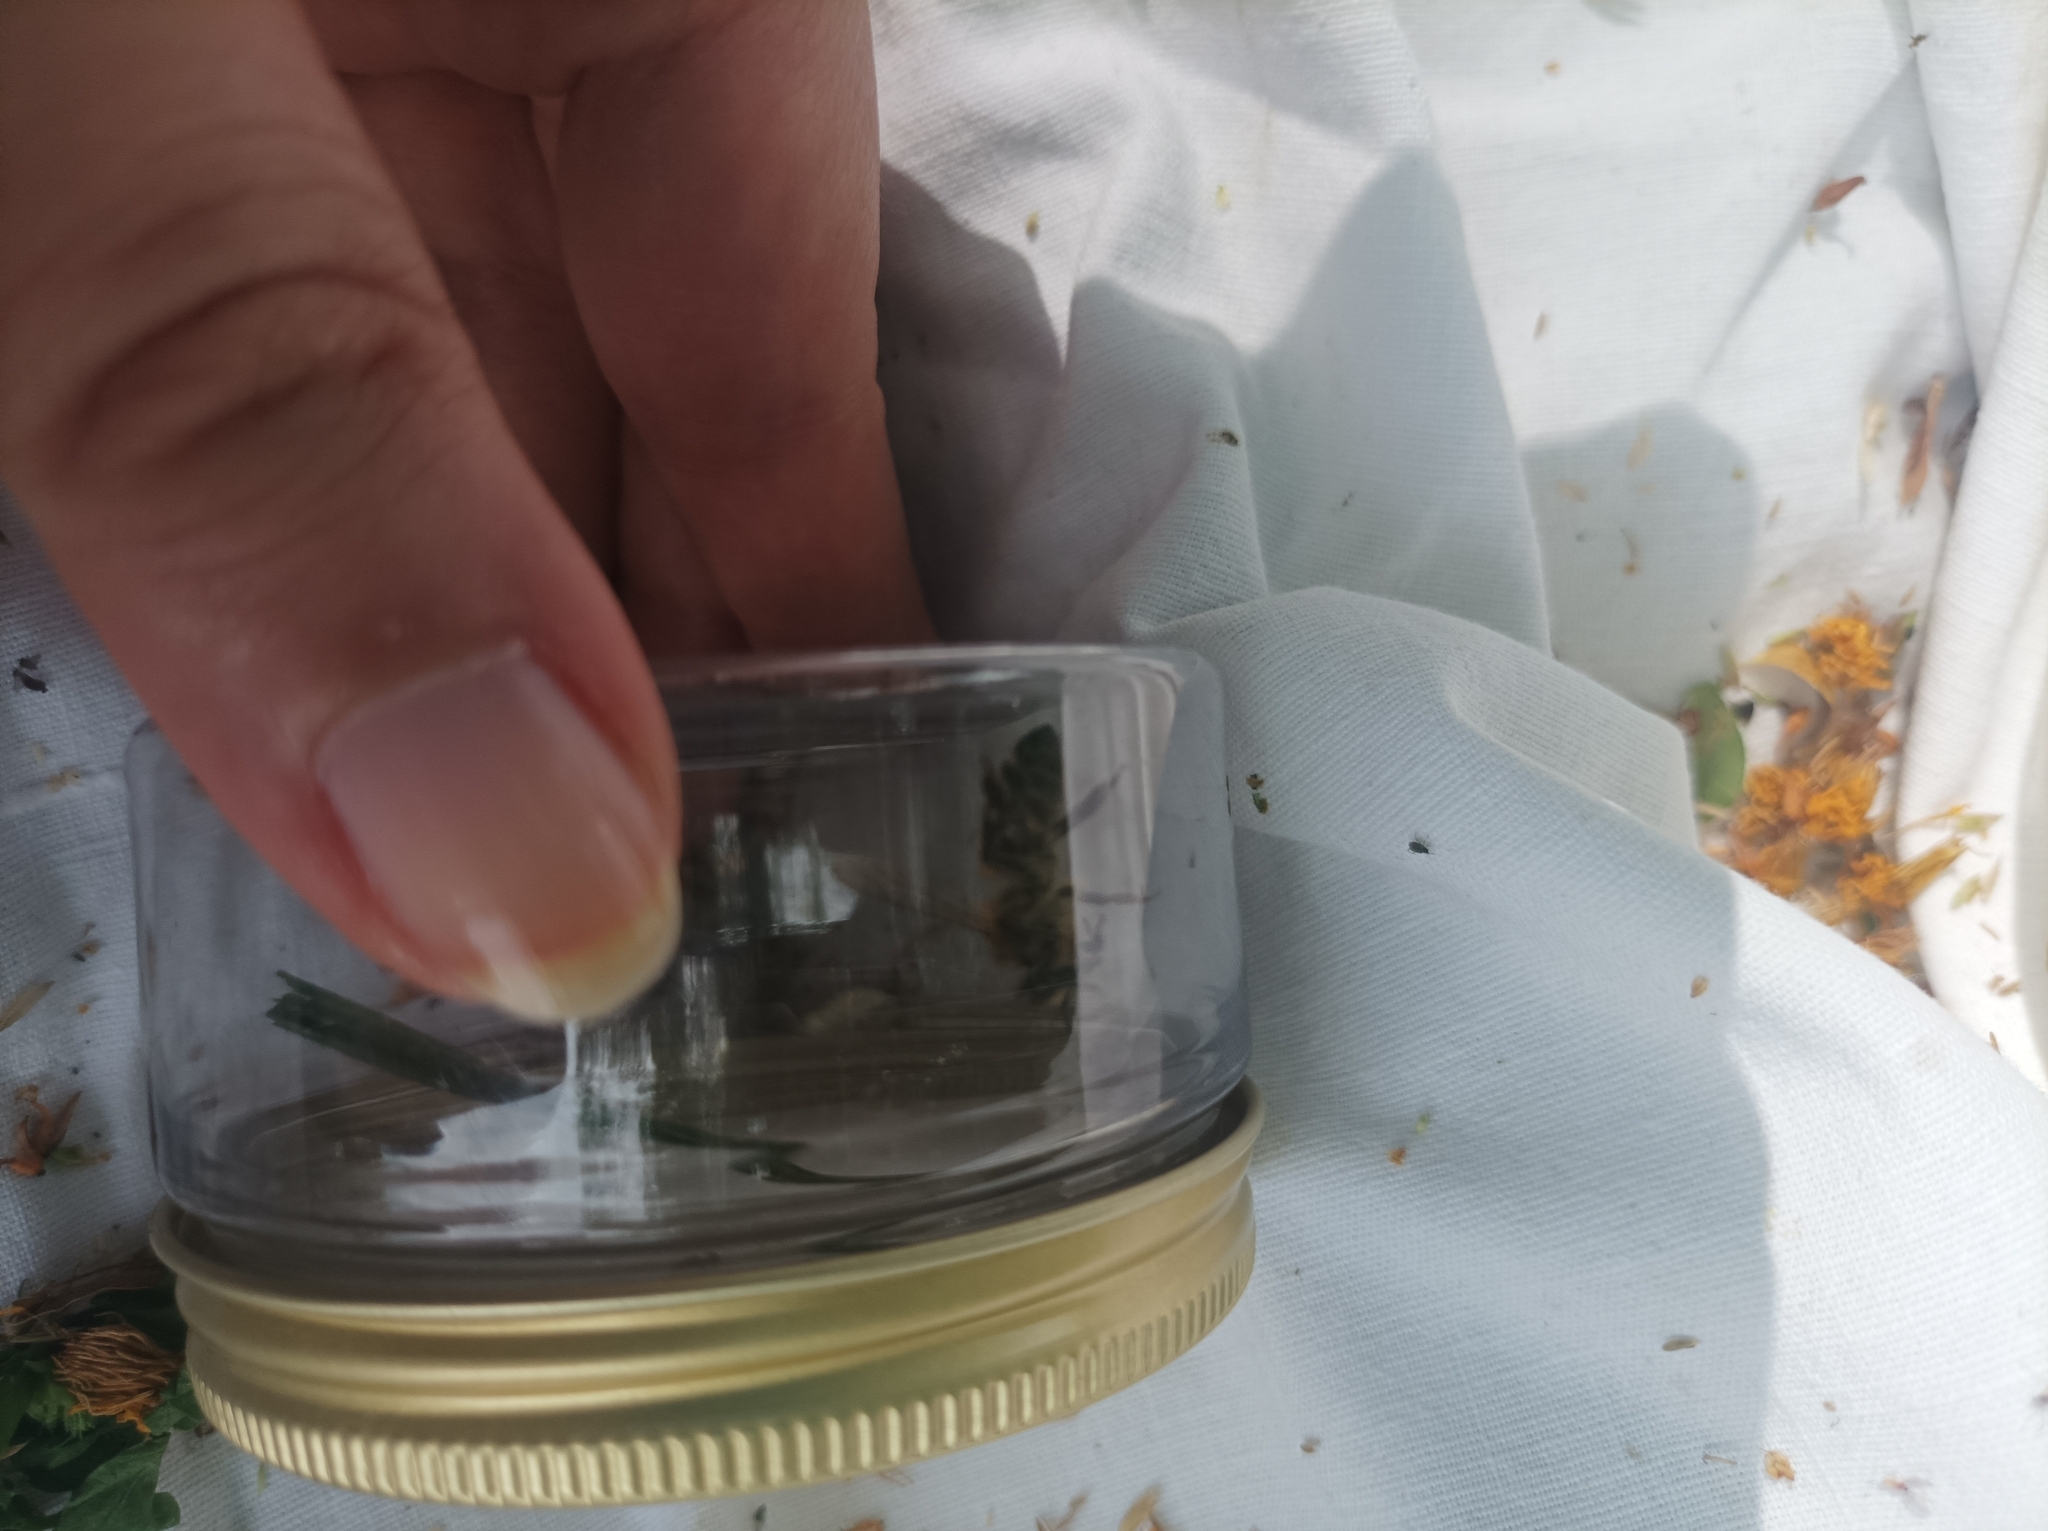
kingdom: Animalia
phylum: Arthropoda
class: Insecta
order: Hymenoptera
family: Apidae
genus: Apis
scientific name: Apis mellifera
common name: Honey bee
